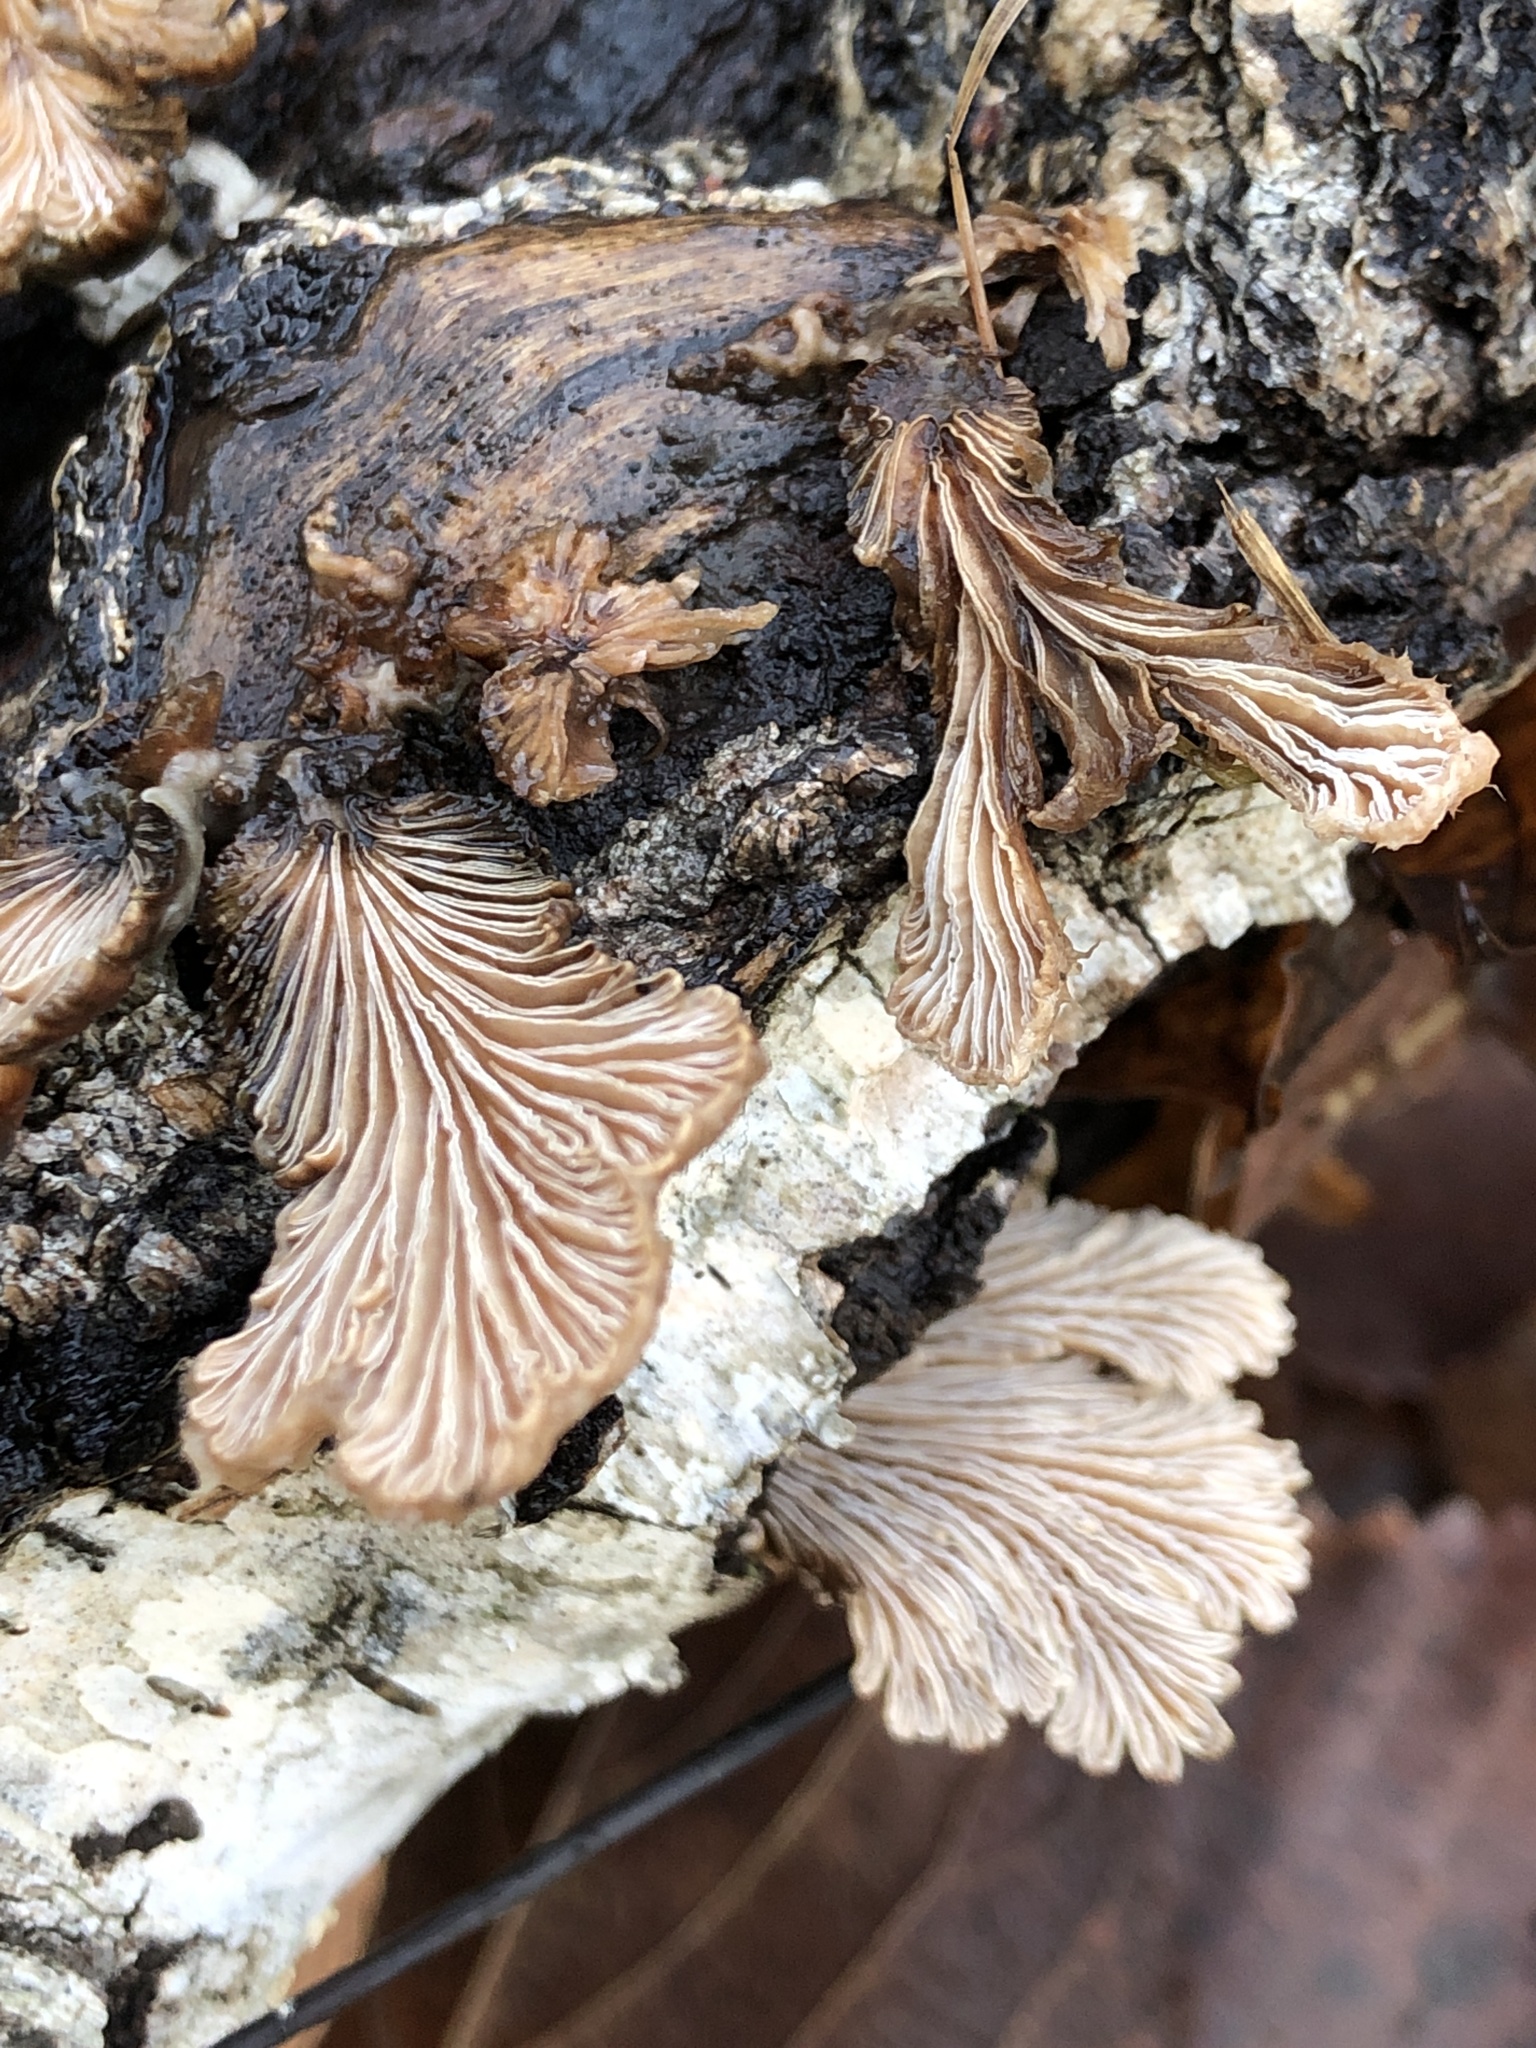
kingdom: Fungi
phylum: Basidiomycota
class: Agaricomycetes
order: Agaricales
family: Schizophyllaceae
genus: Schizophyllum
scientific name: Schizophyllum commune
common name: Common porecrust
